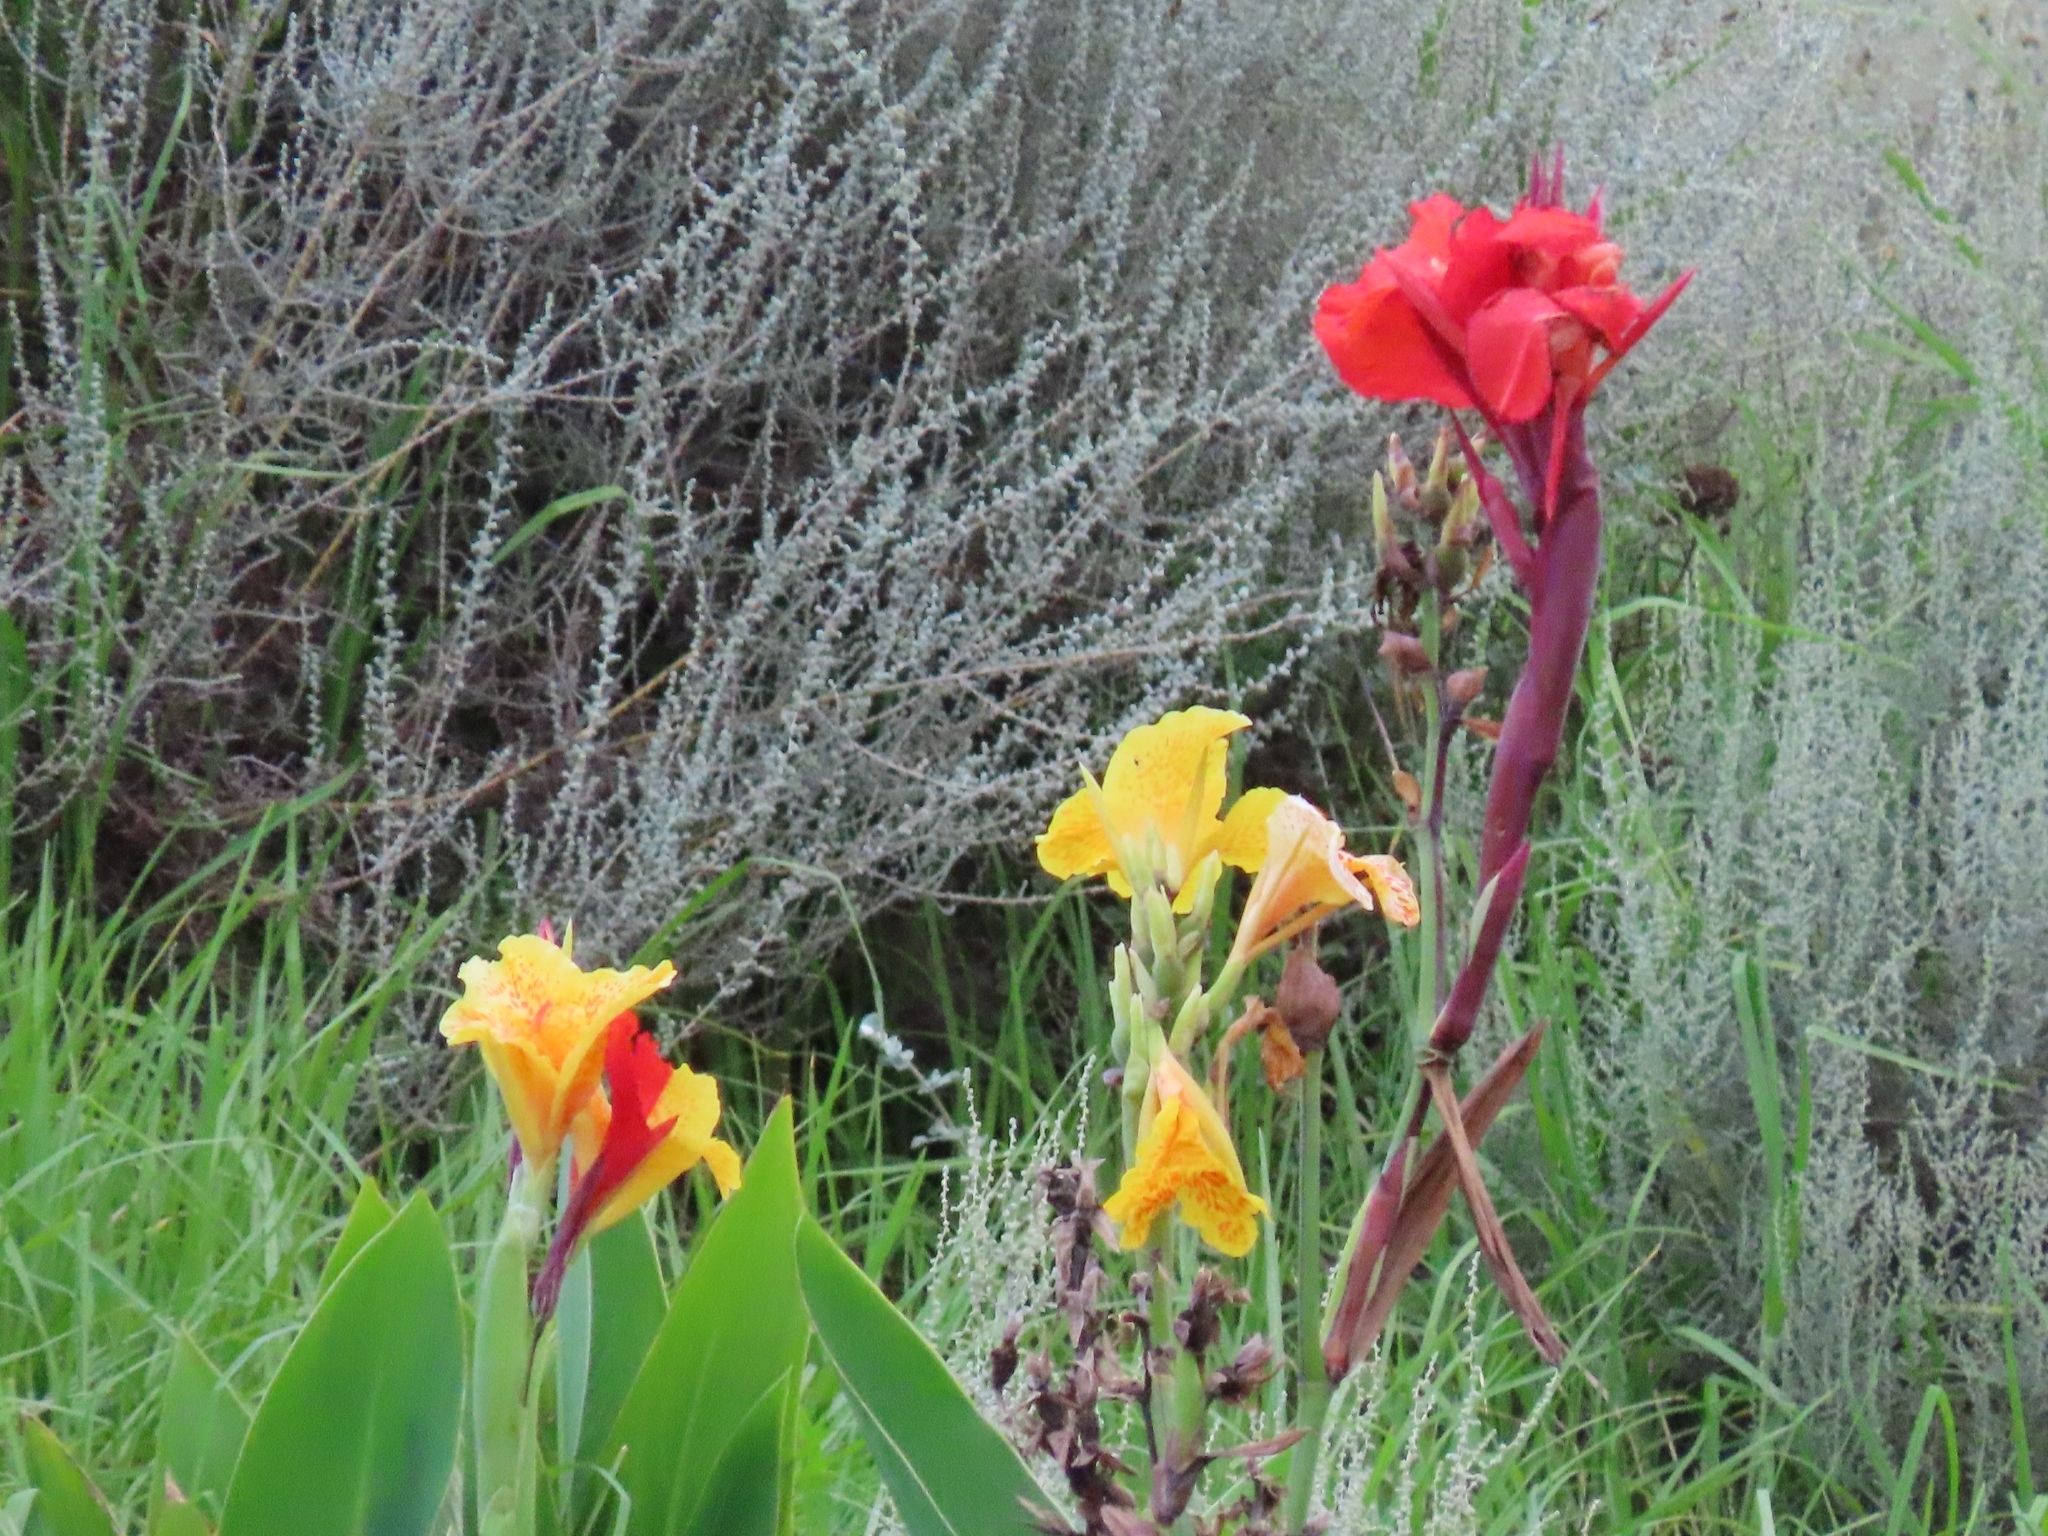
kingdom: Plantae
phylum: Tracheophyta
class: Liliopsida
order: Zingiberales
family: Cannaceae
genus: Canna
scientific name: Canna hybrida
